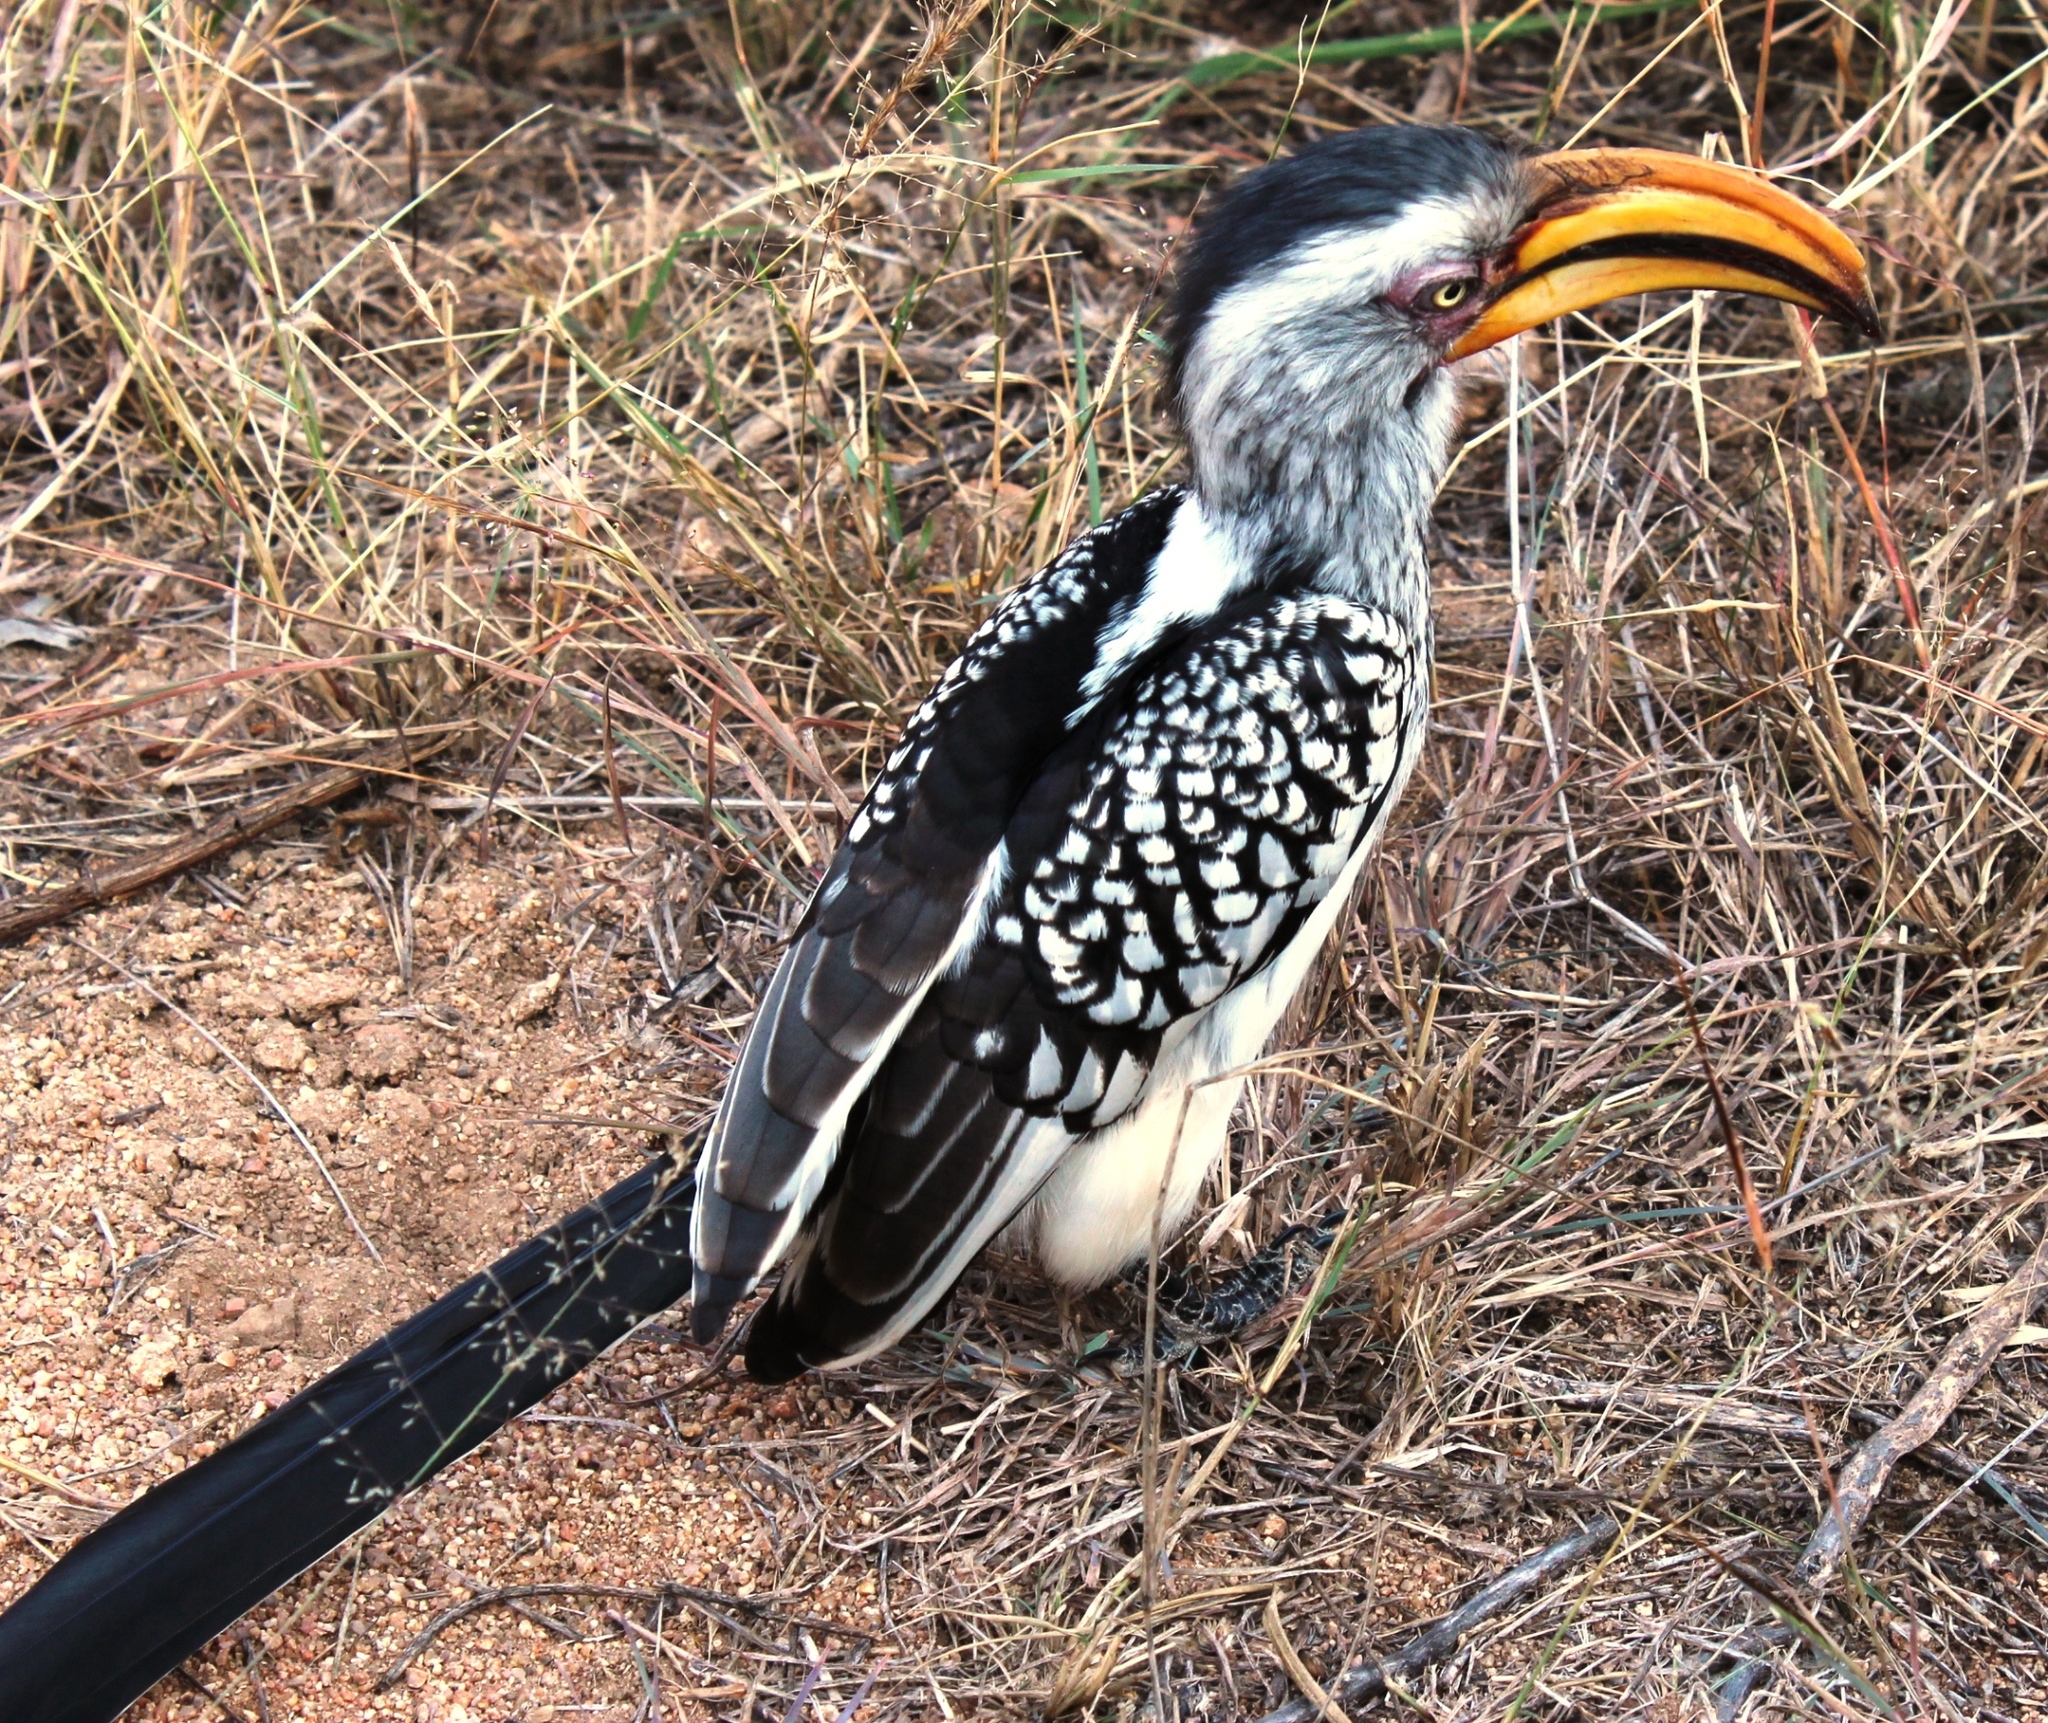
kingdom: Animalia
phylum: Chordata
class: Aves
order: Bucerotiformes
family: Bucerotidae
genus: Tockus
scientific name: Tockus leucomelas
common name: Southern yellow-billed hornbill
